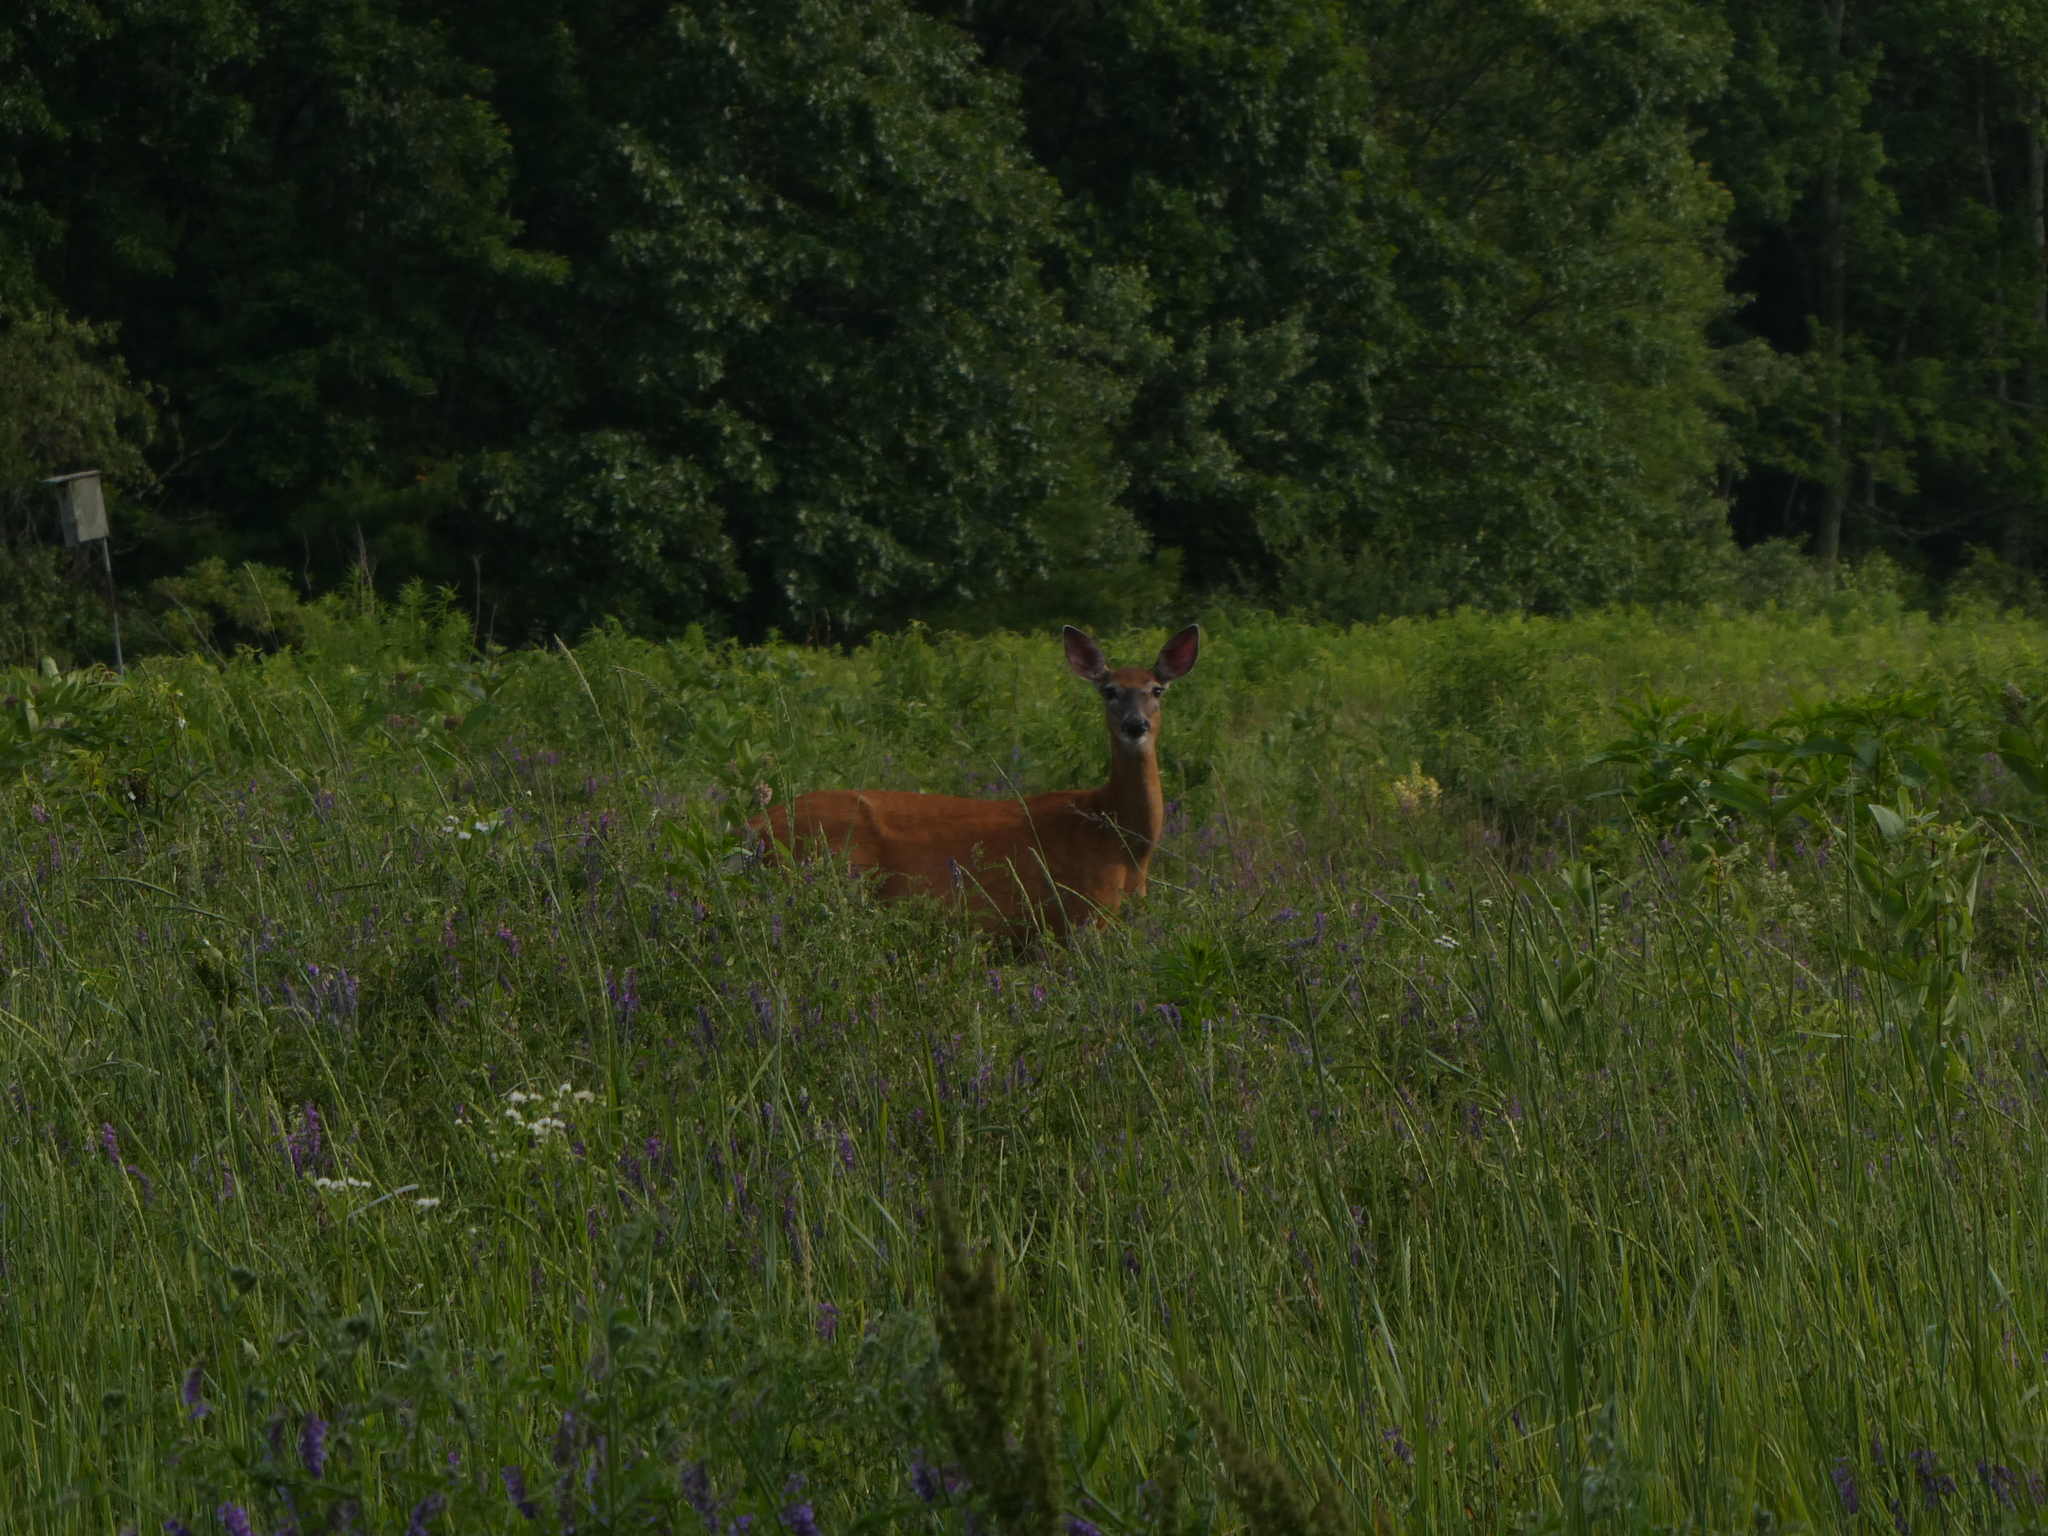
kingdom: Animalia
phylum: Chordata
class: Mammalia
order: Artiodactyla
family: Cervidae
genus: Odocoileus
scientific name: Odocoileus virginianus
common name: White-tailed deer
